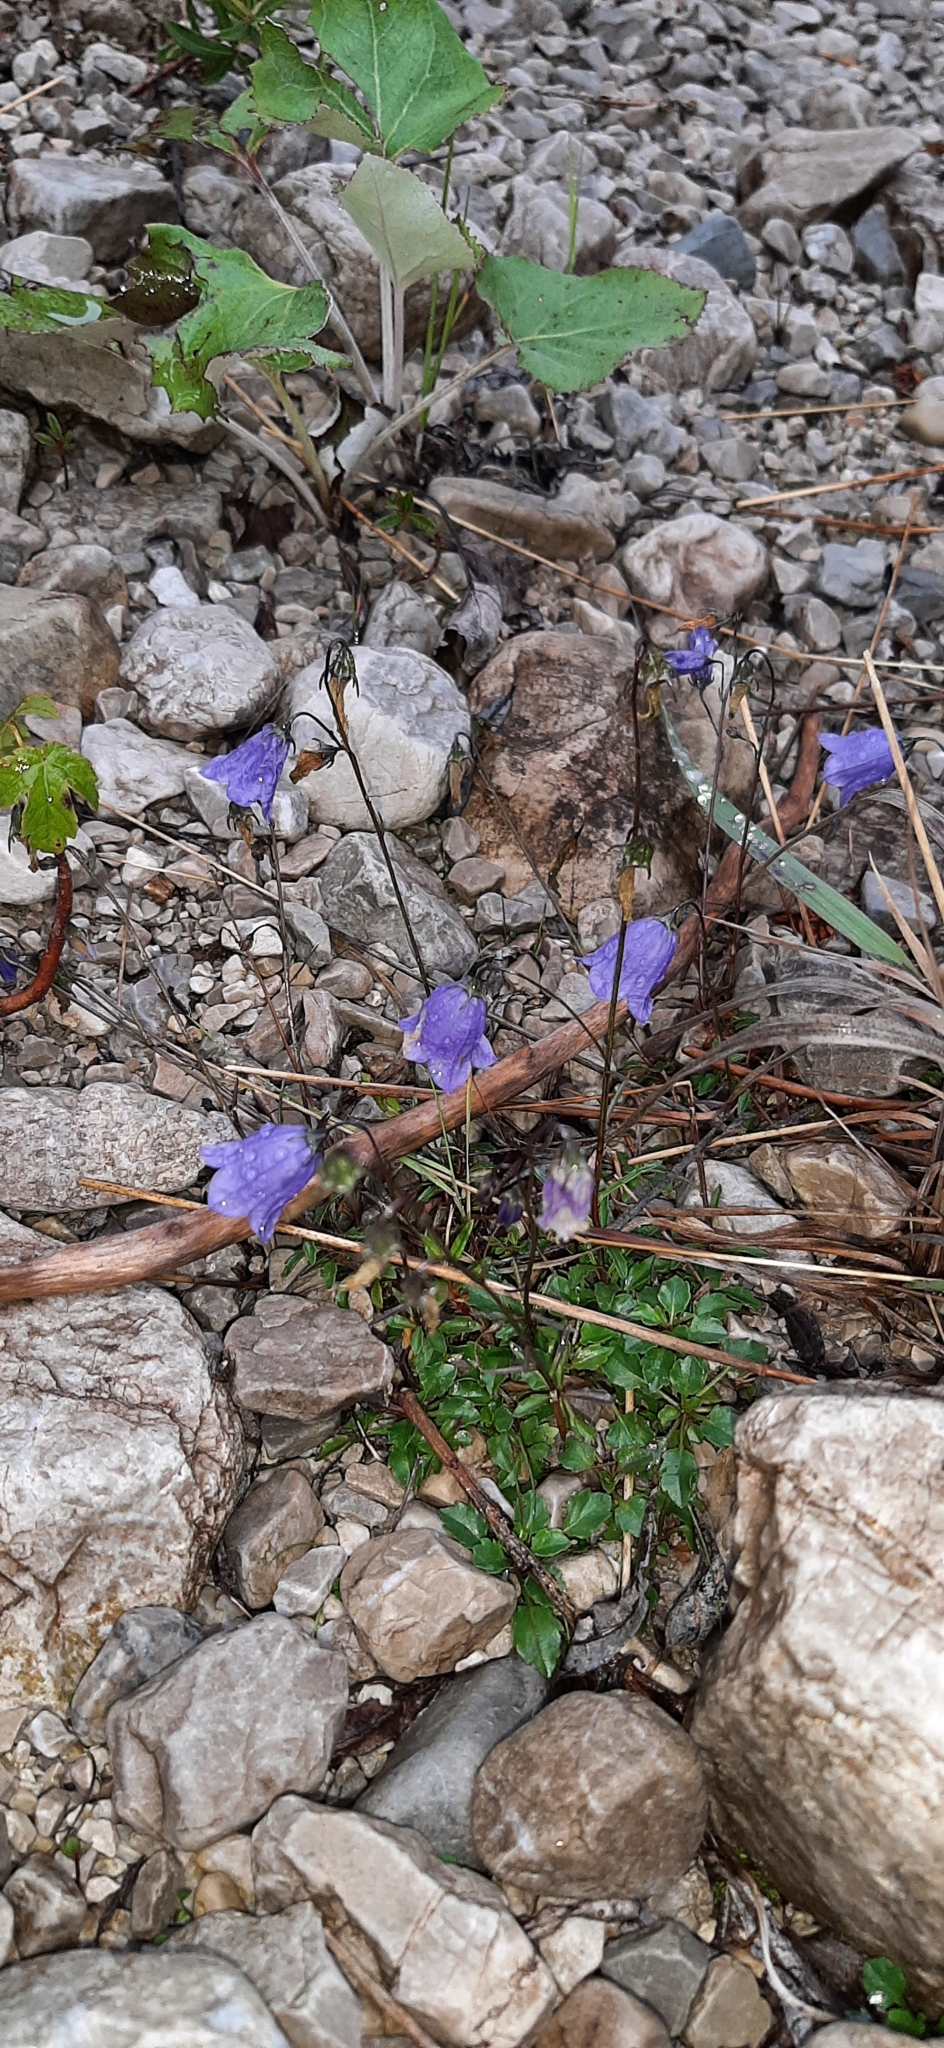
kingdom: Plantae
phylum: Tracheophyta
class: Magnoliopsida
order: Asterales
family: Campanulaceae
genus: Campanula
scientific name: Campanula cochleariifolia
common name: Fairies'-thimbles
